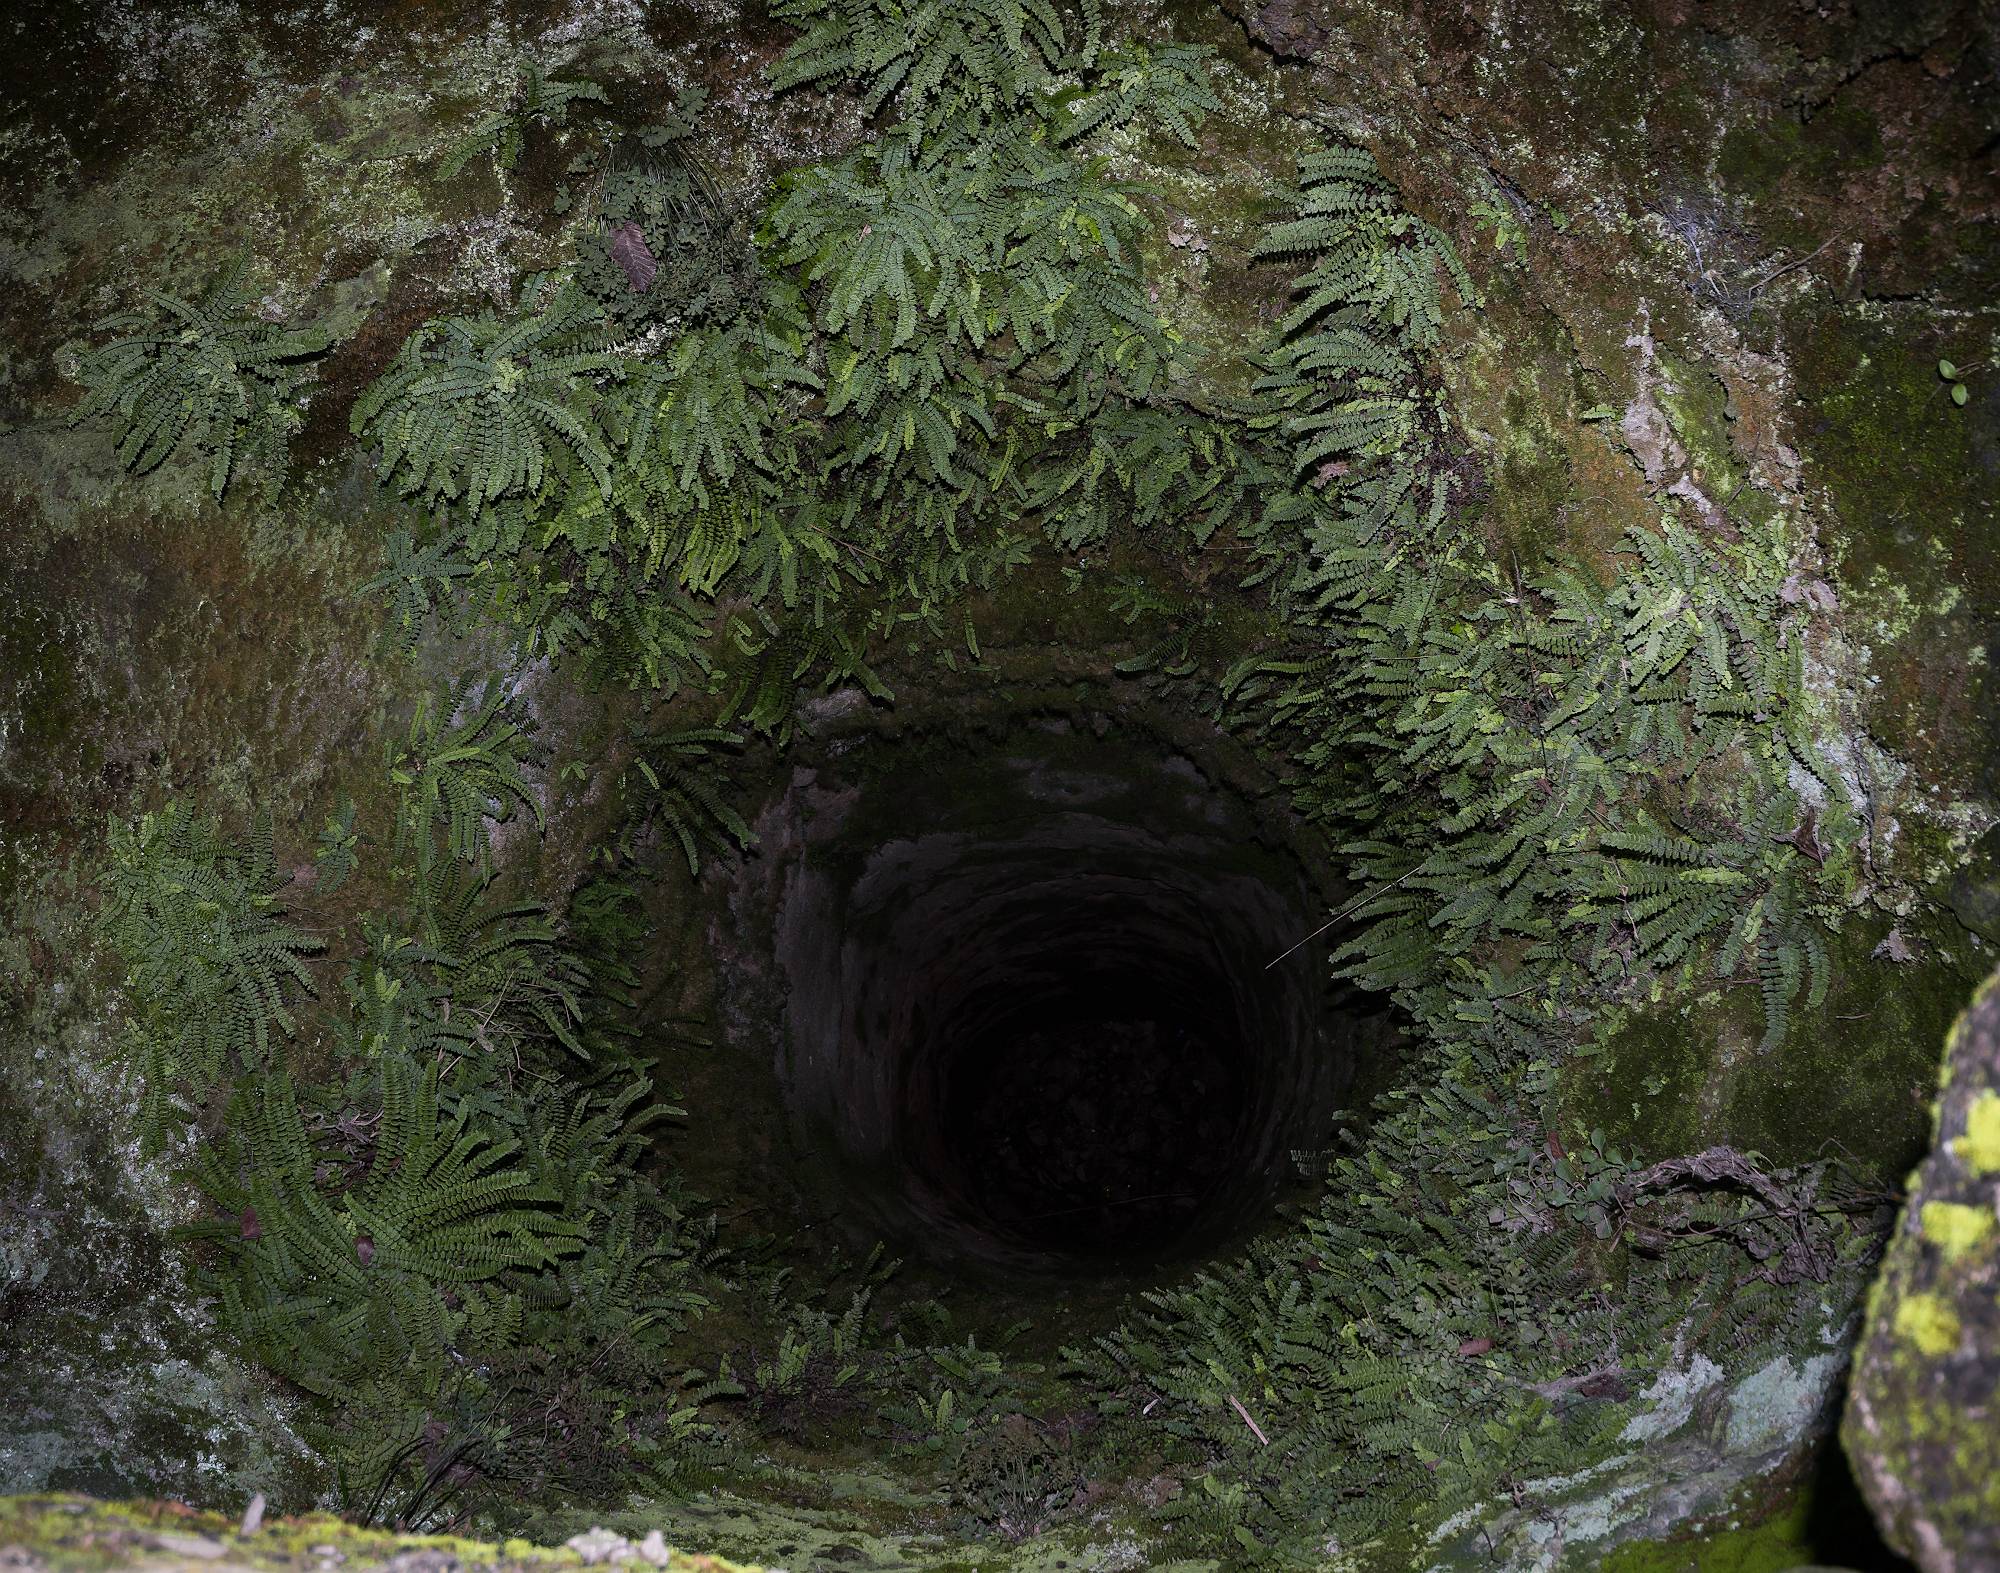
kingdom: Plantae
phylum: Tracheophyta
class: Polypodiopsida
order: Polypodiales
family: Aspleniaceae
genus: Asplenium
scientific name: Asplenium trichomanes
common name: Maidenhair spleenwort
